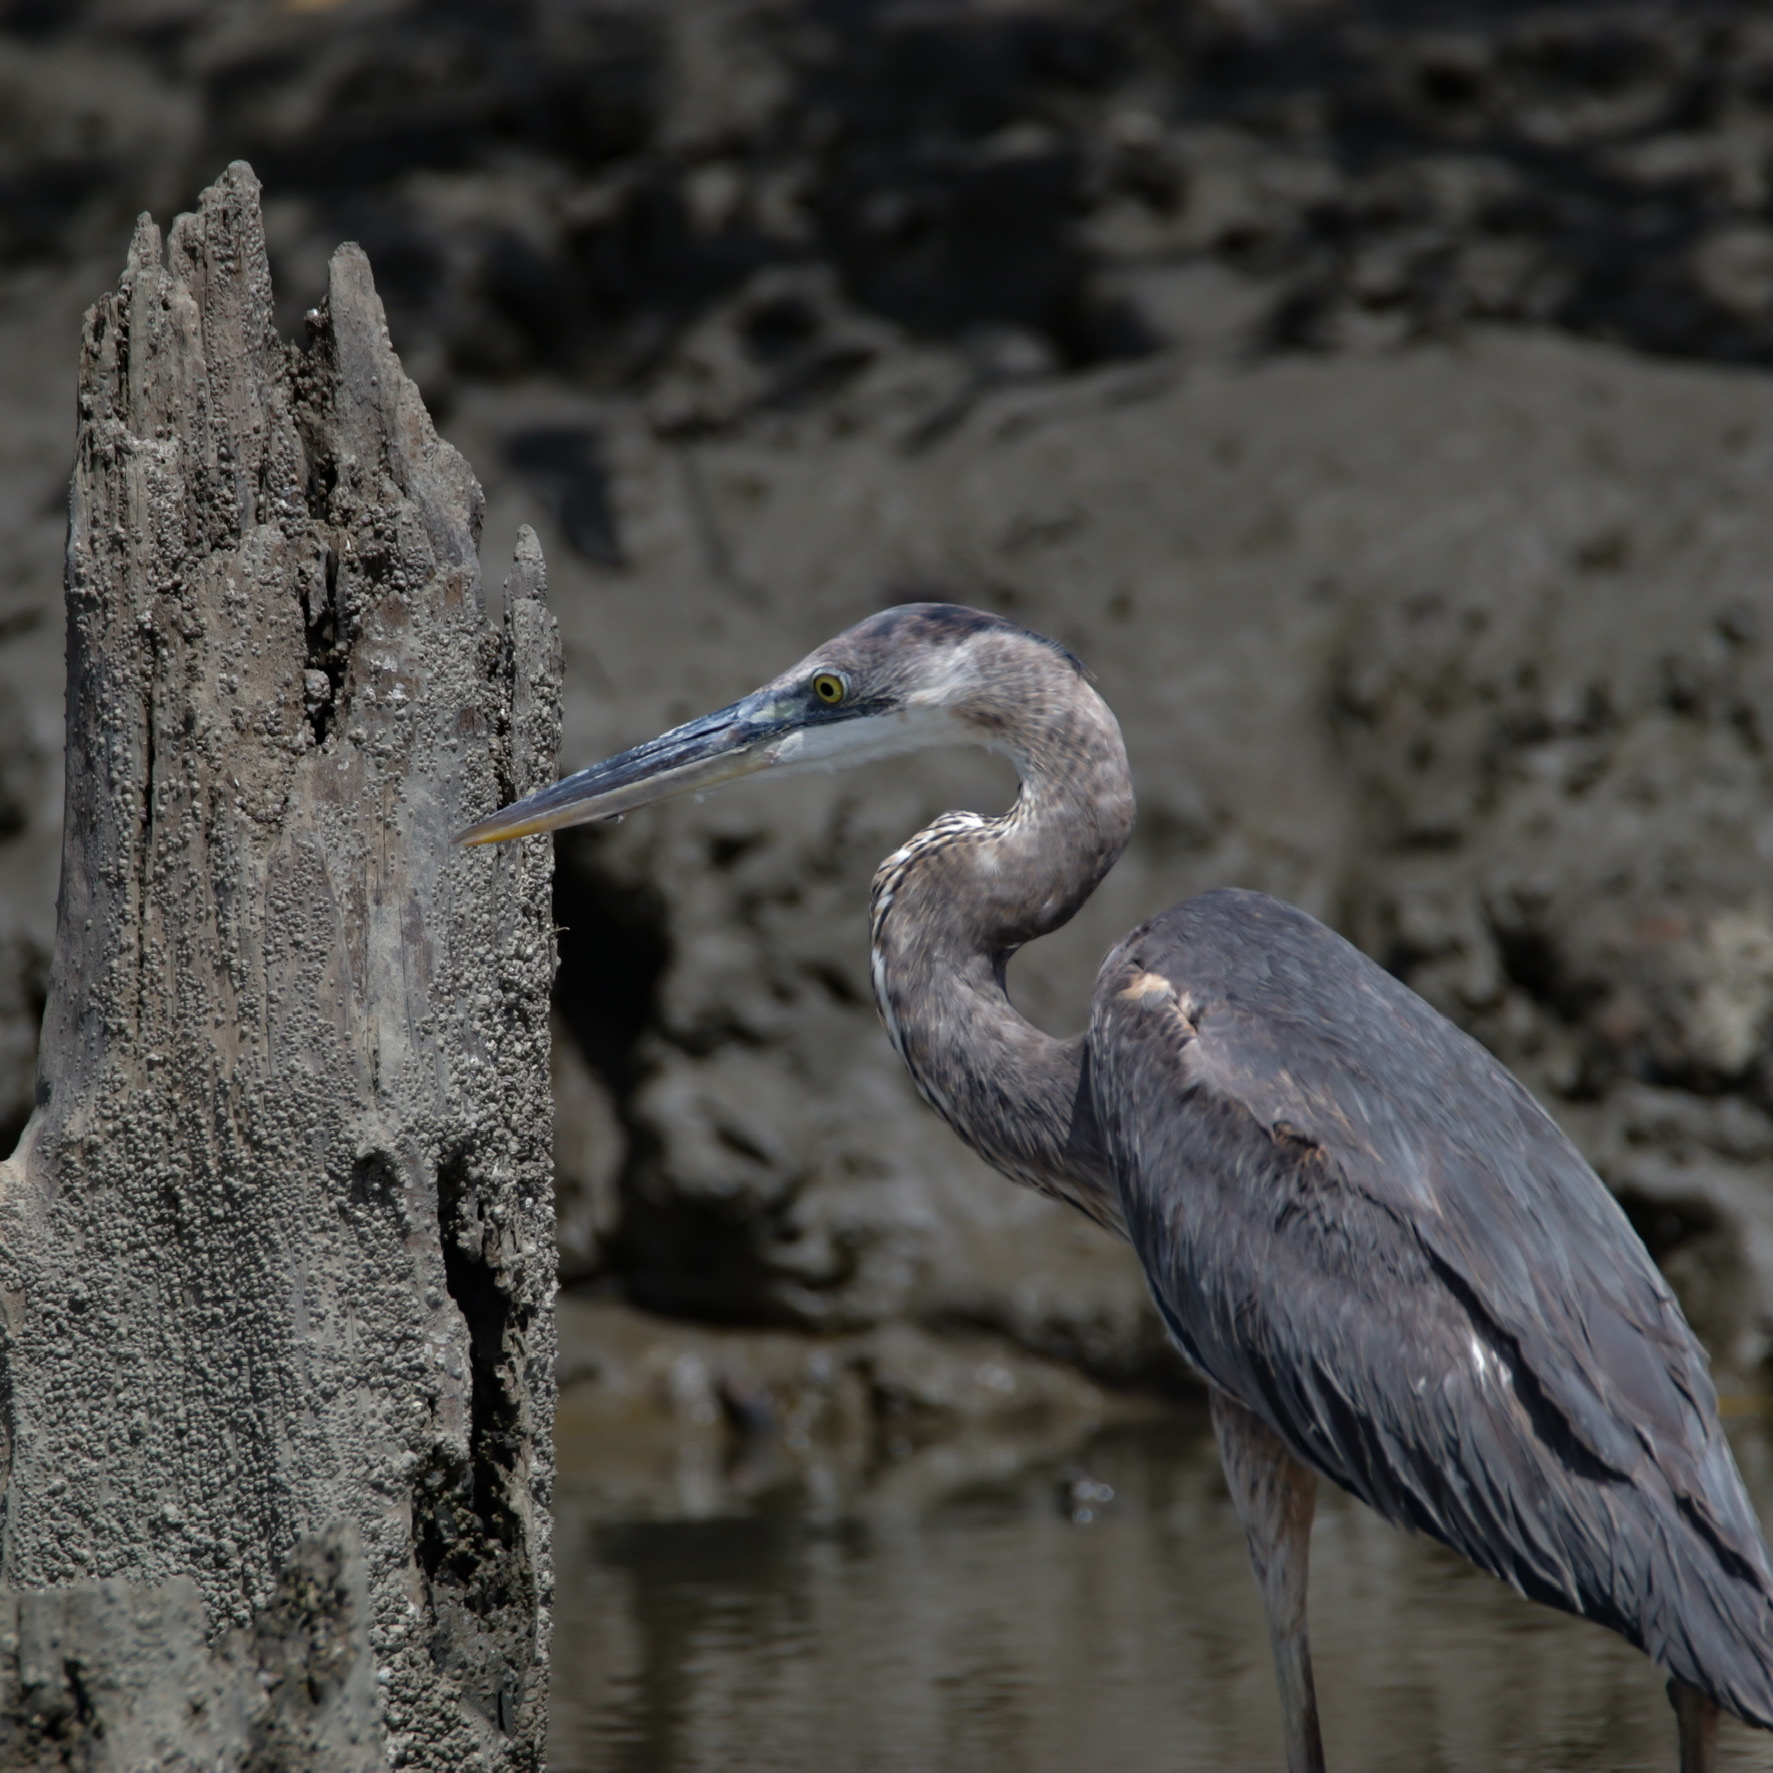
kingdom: Animalia
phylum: Chordata
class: Aves
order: Pelecaniformes
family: Ardeidae
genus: Ardea
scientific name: Ardea herodias
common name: Great blue heron
